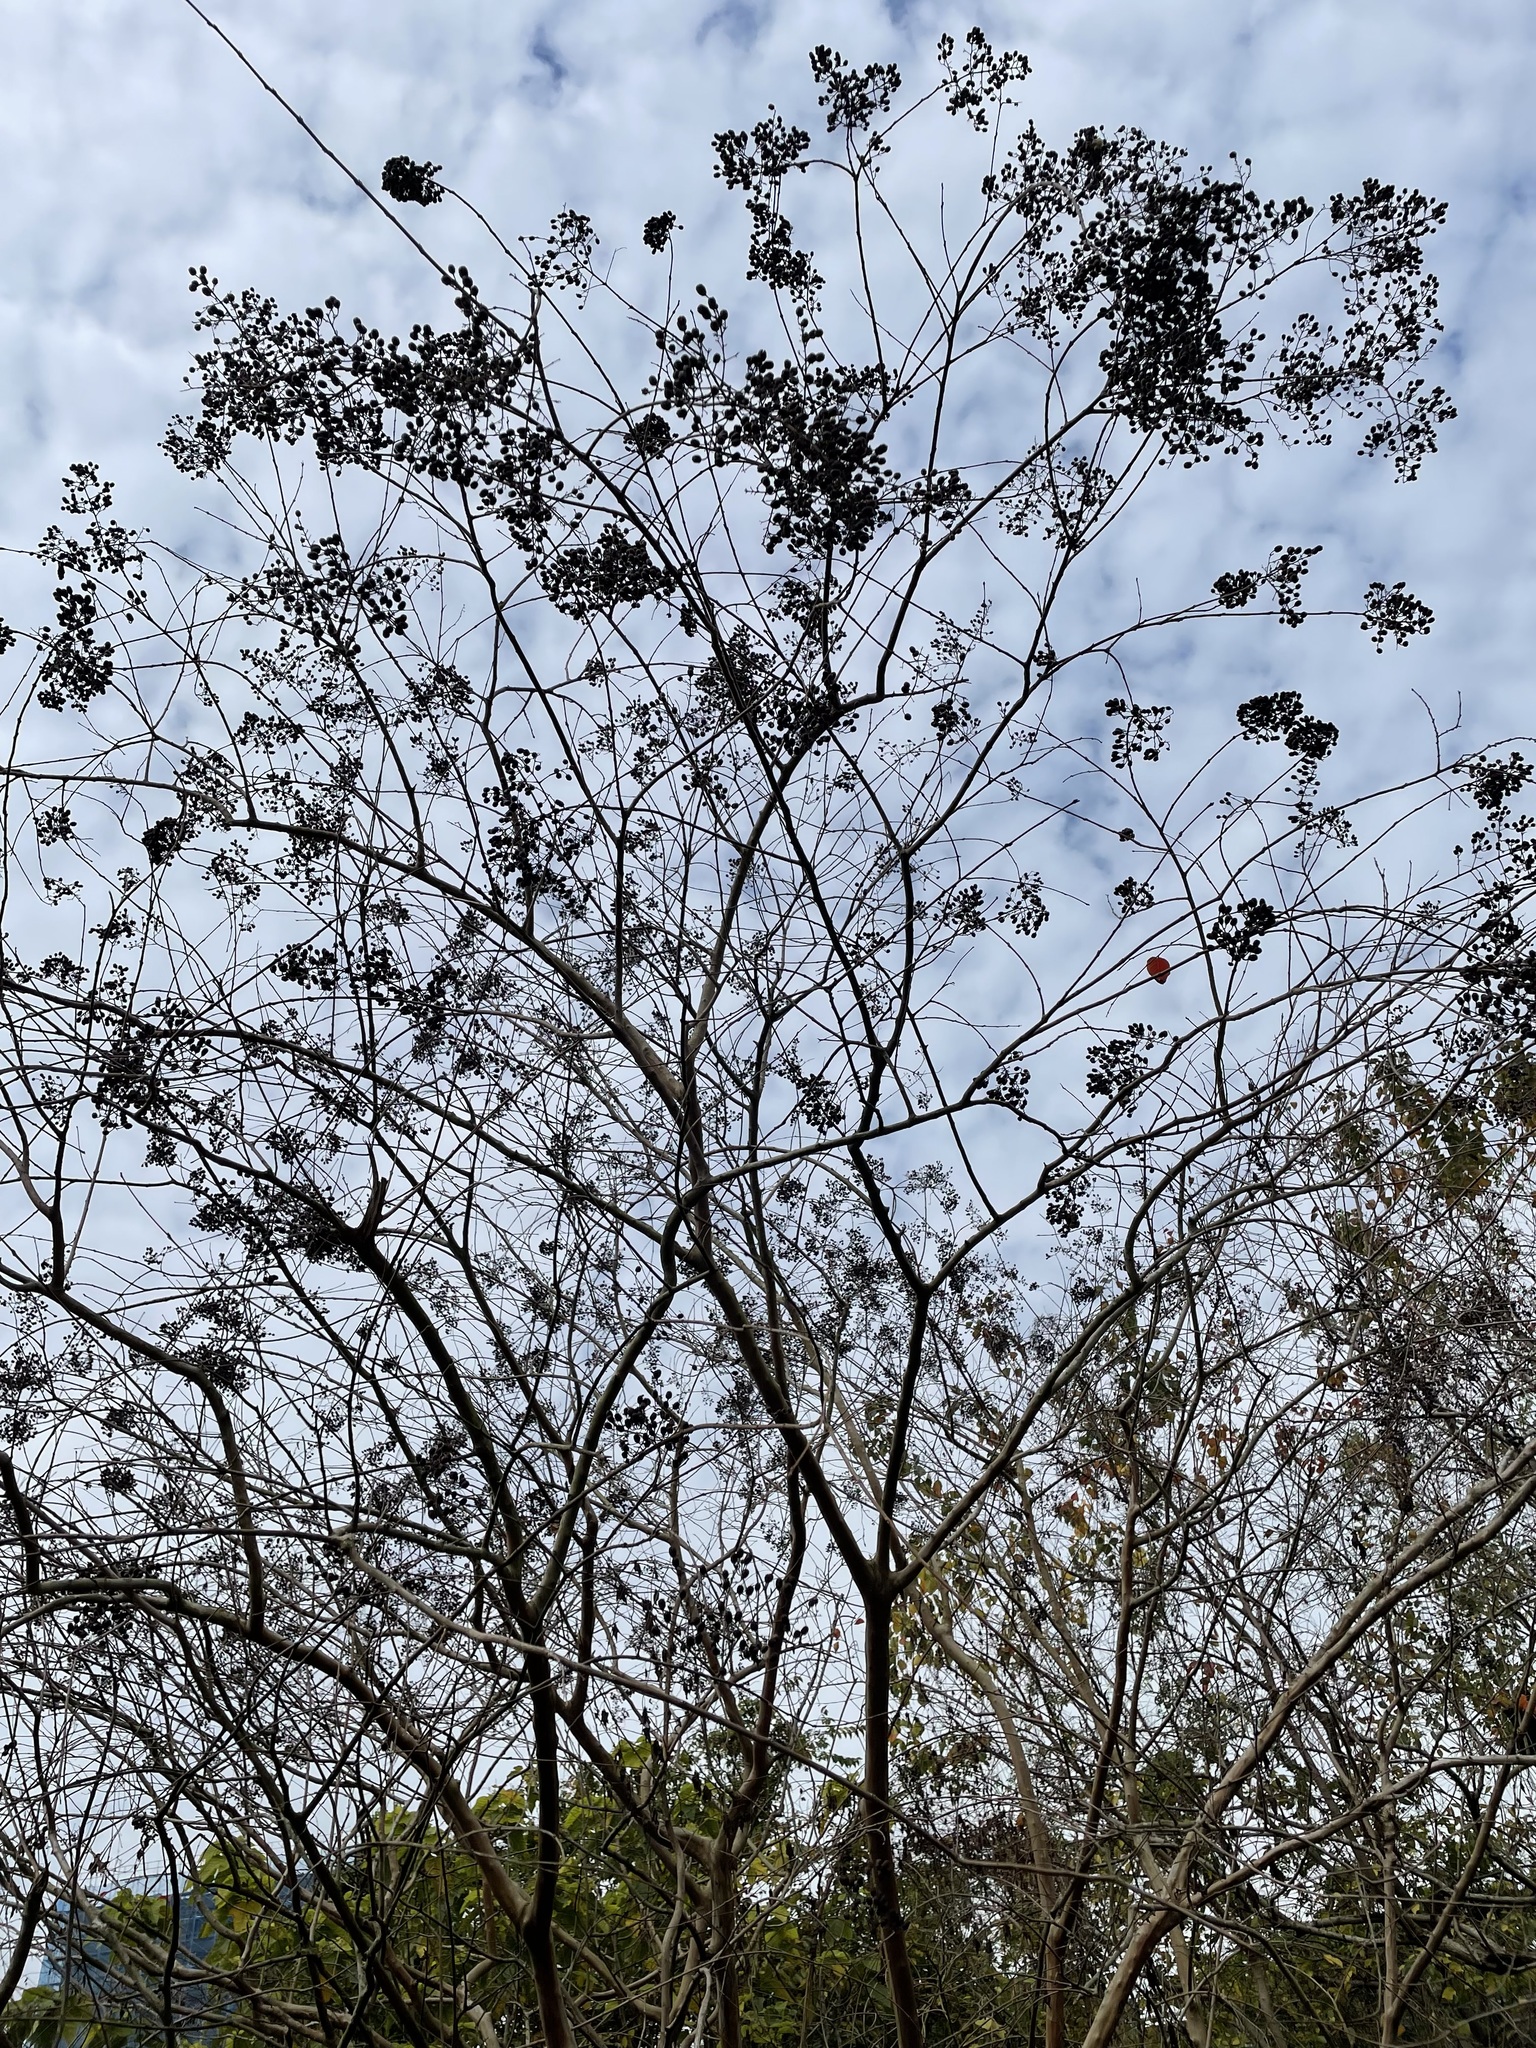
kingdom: Plantae
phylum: Tracheophyta
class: Magnoliopsida
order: Myrtales
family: Lythraceae
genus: Lagerstroemia
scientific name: Lagerstroemia subcostata
